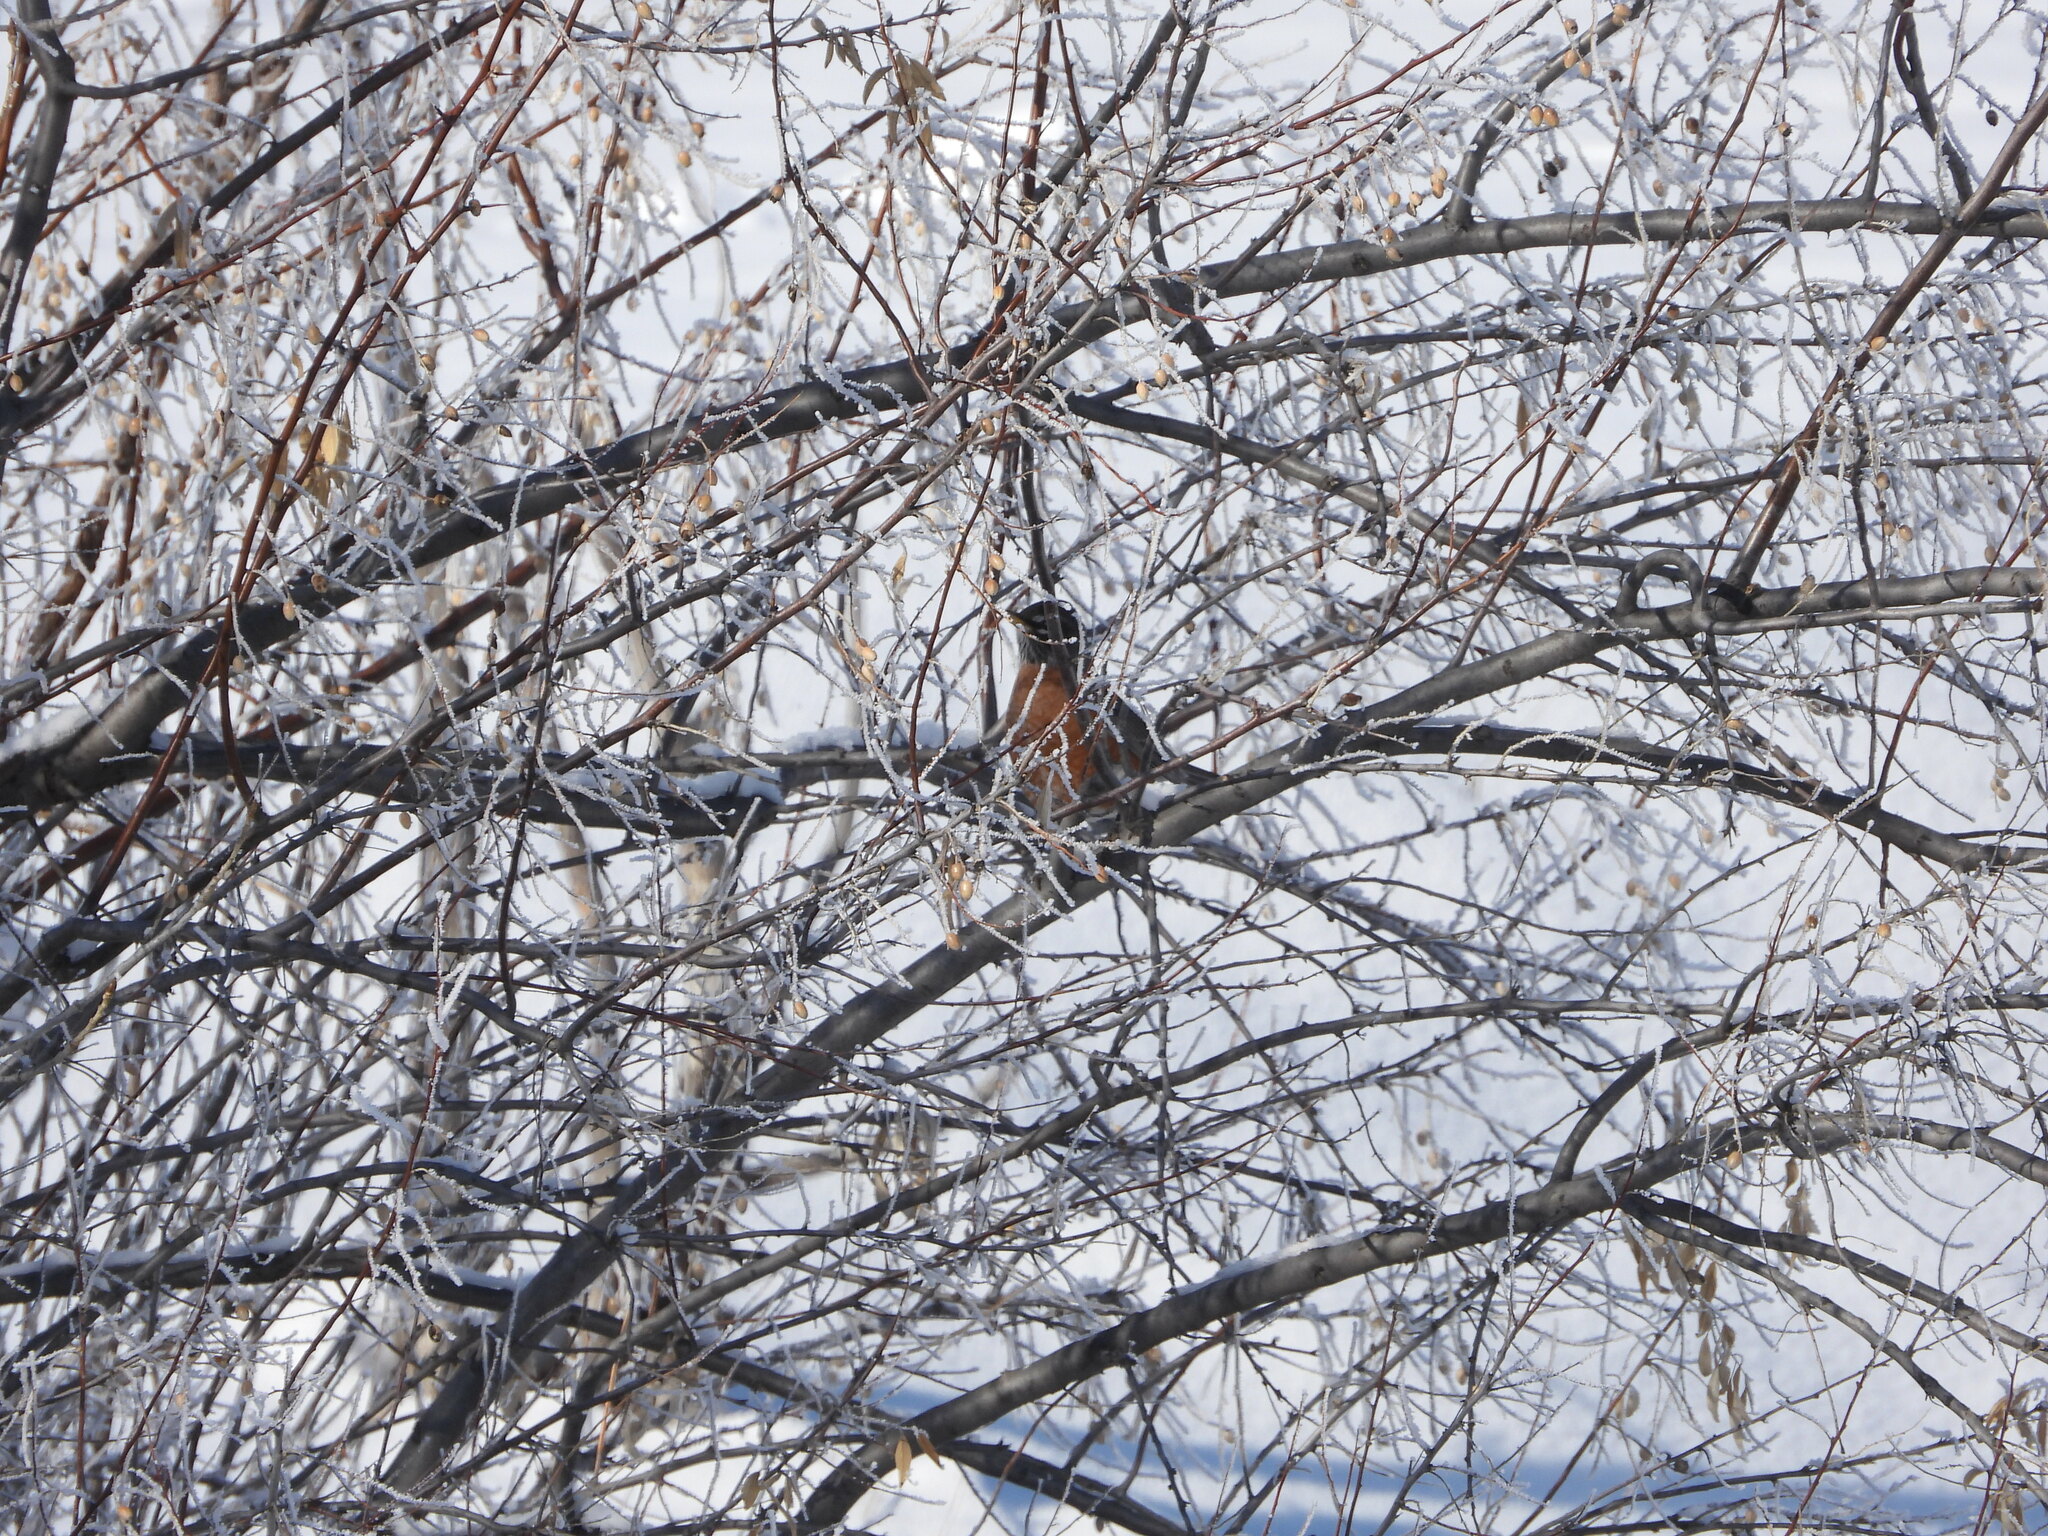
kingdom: Animalia
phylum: Chordata
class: Aves
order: Passeriformes
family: Turdidae
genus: Turdus
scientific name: Turdus migratorius
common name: American robin
